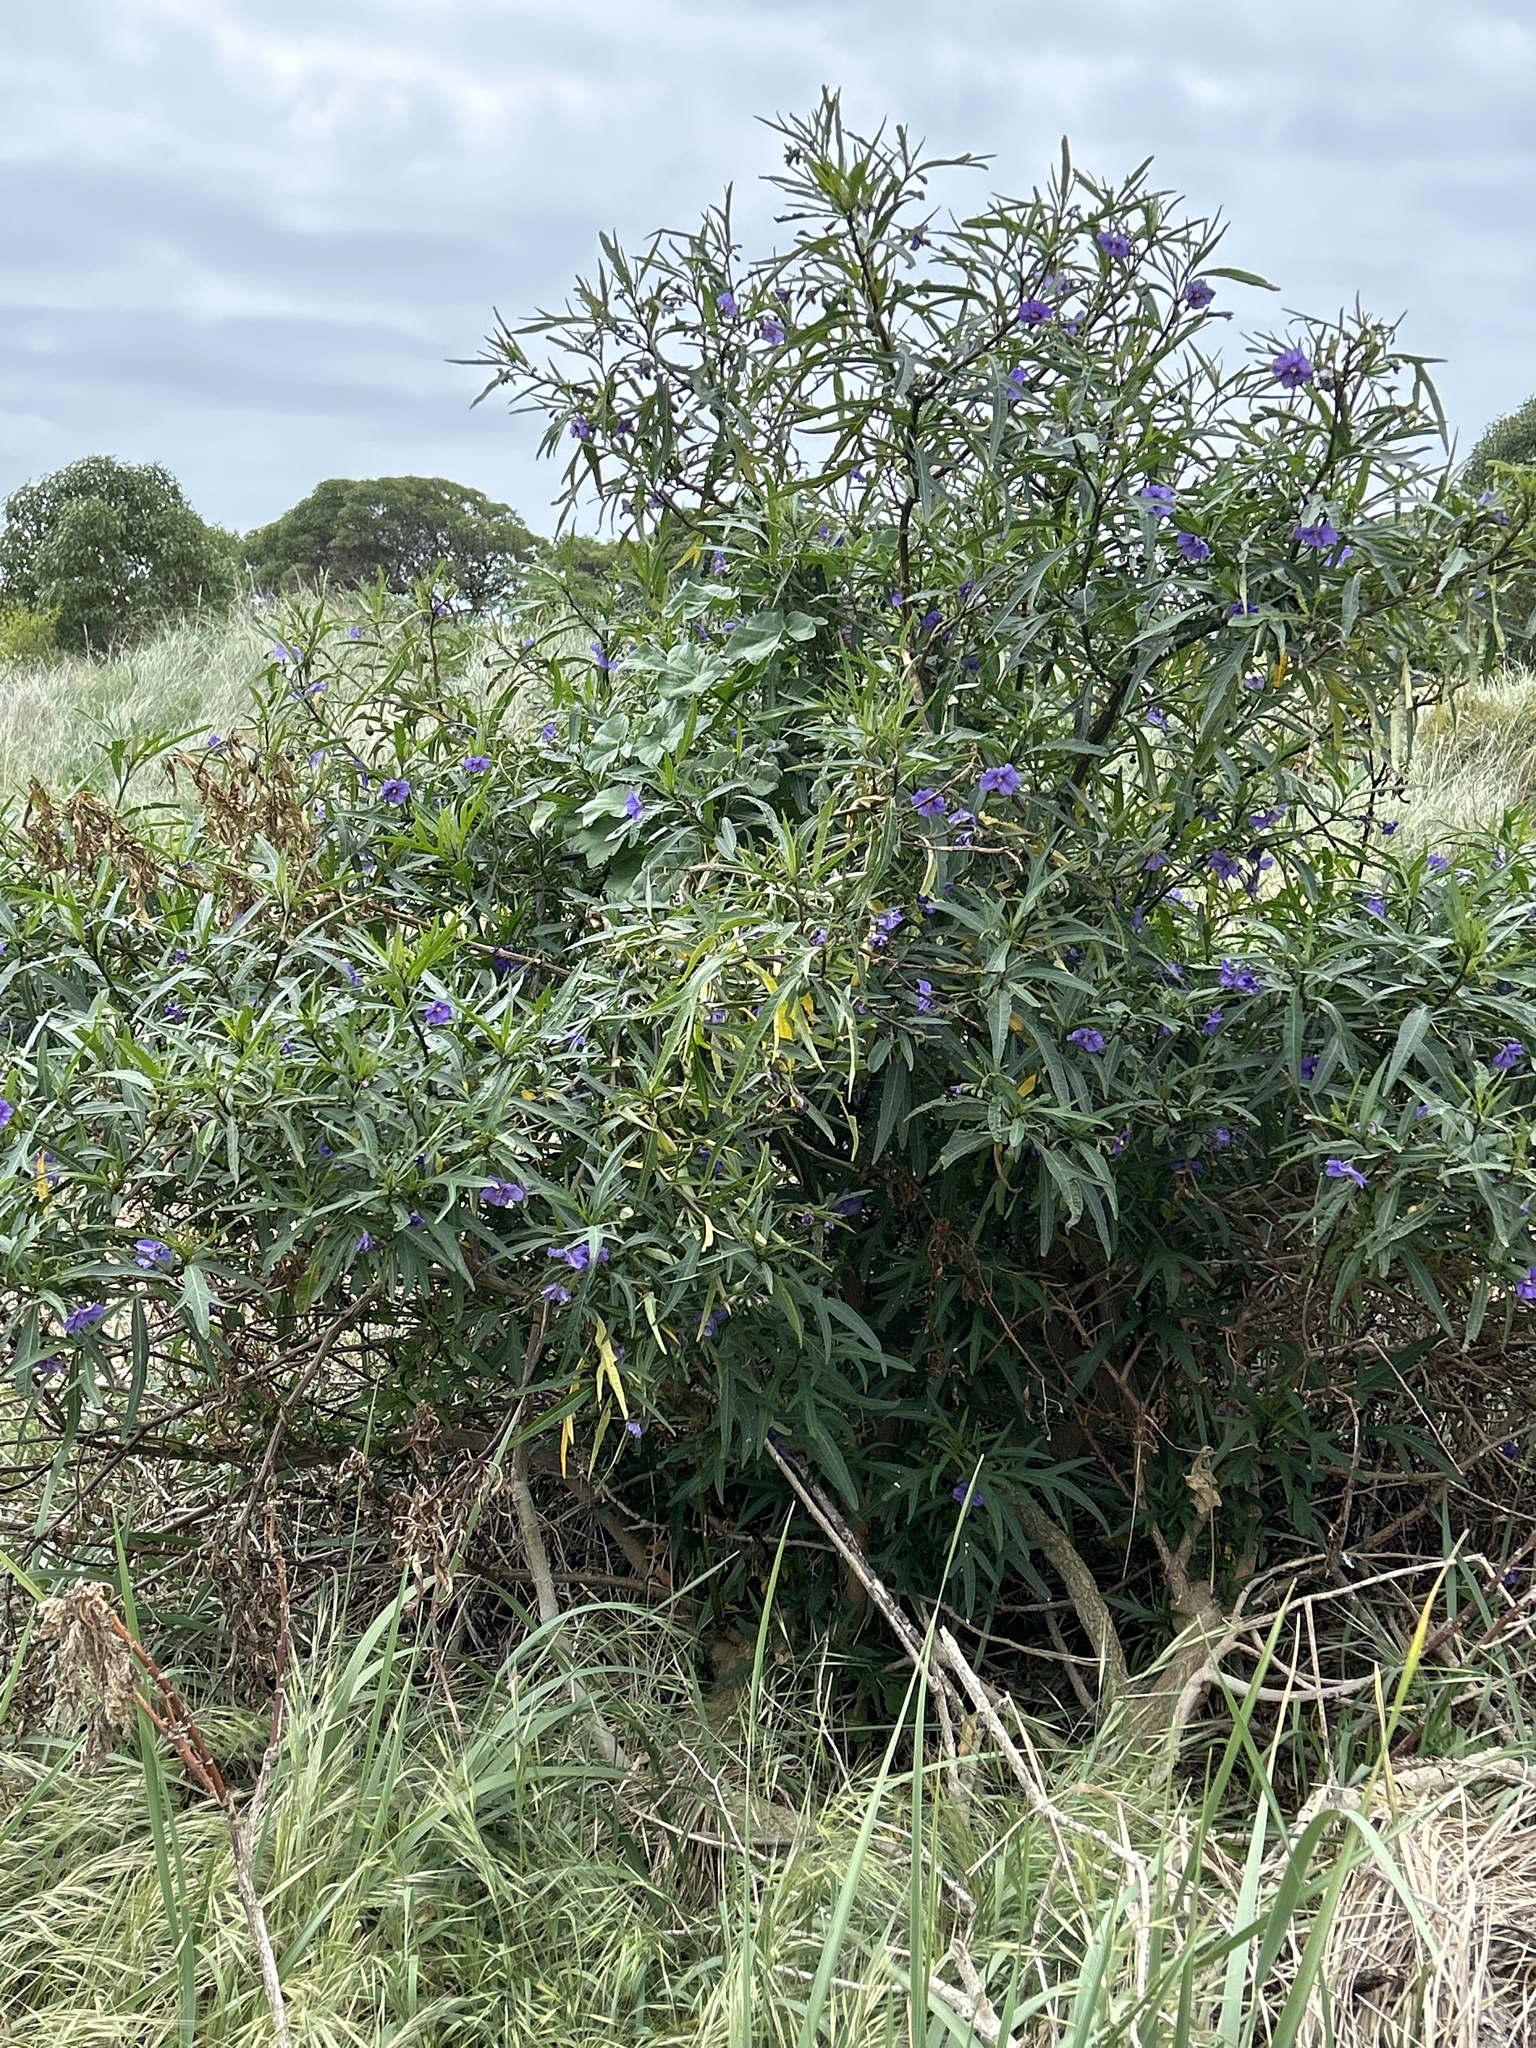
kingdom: Plantae
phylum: Tracheophyta
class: Magnoliopsida
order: Solanales
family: Solanaceae
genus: Solanum
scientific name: Solanum laciniatum
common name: Kangaroo-apple
